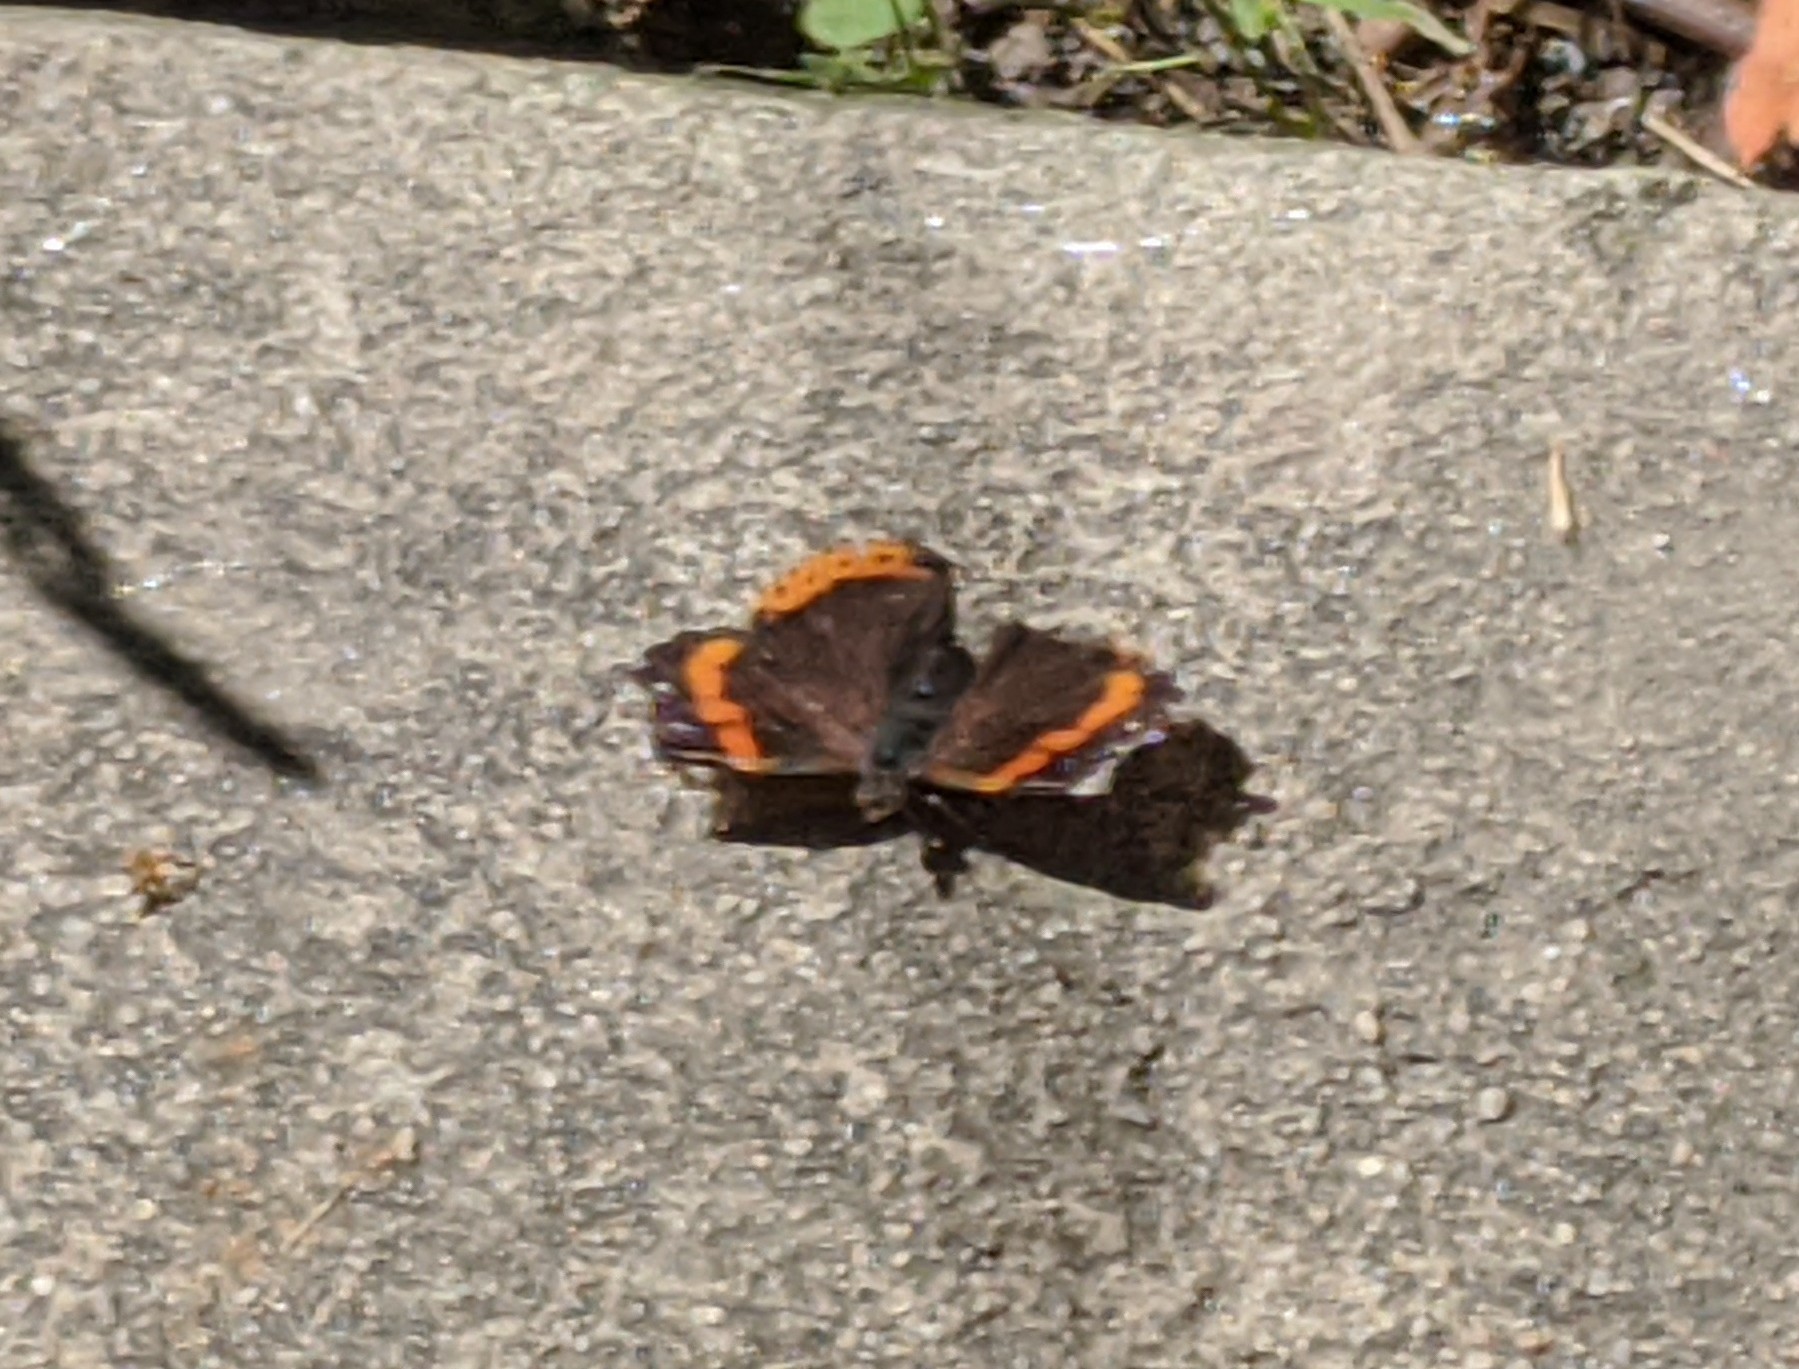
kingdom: Animalia
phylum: Arthropoda
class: Insecta
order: Lepidoptera
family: Nymphalidae
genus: Vanessa
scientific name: Vanessa atalanta
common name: Red admiral
